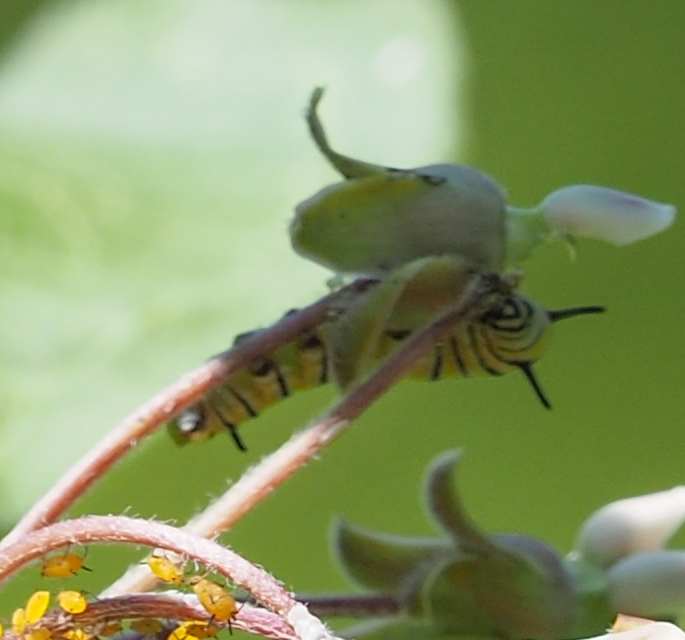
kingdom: Animalia
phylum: Arthropoda
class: Insecta
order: Lepidoptera
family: Nymphalidae
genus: Danaus
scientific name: Danaus plexippus
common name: Monarch
